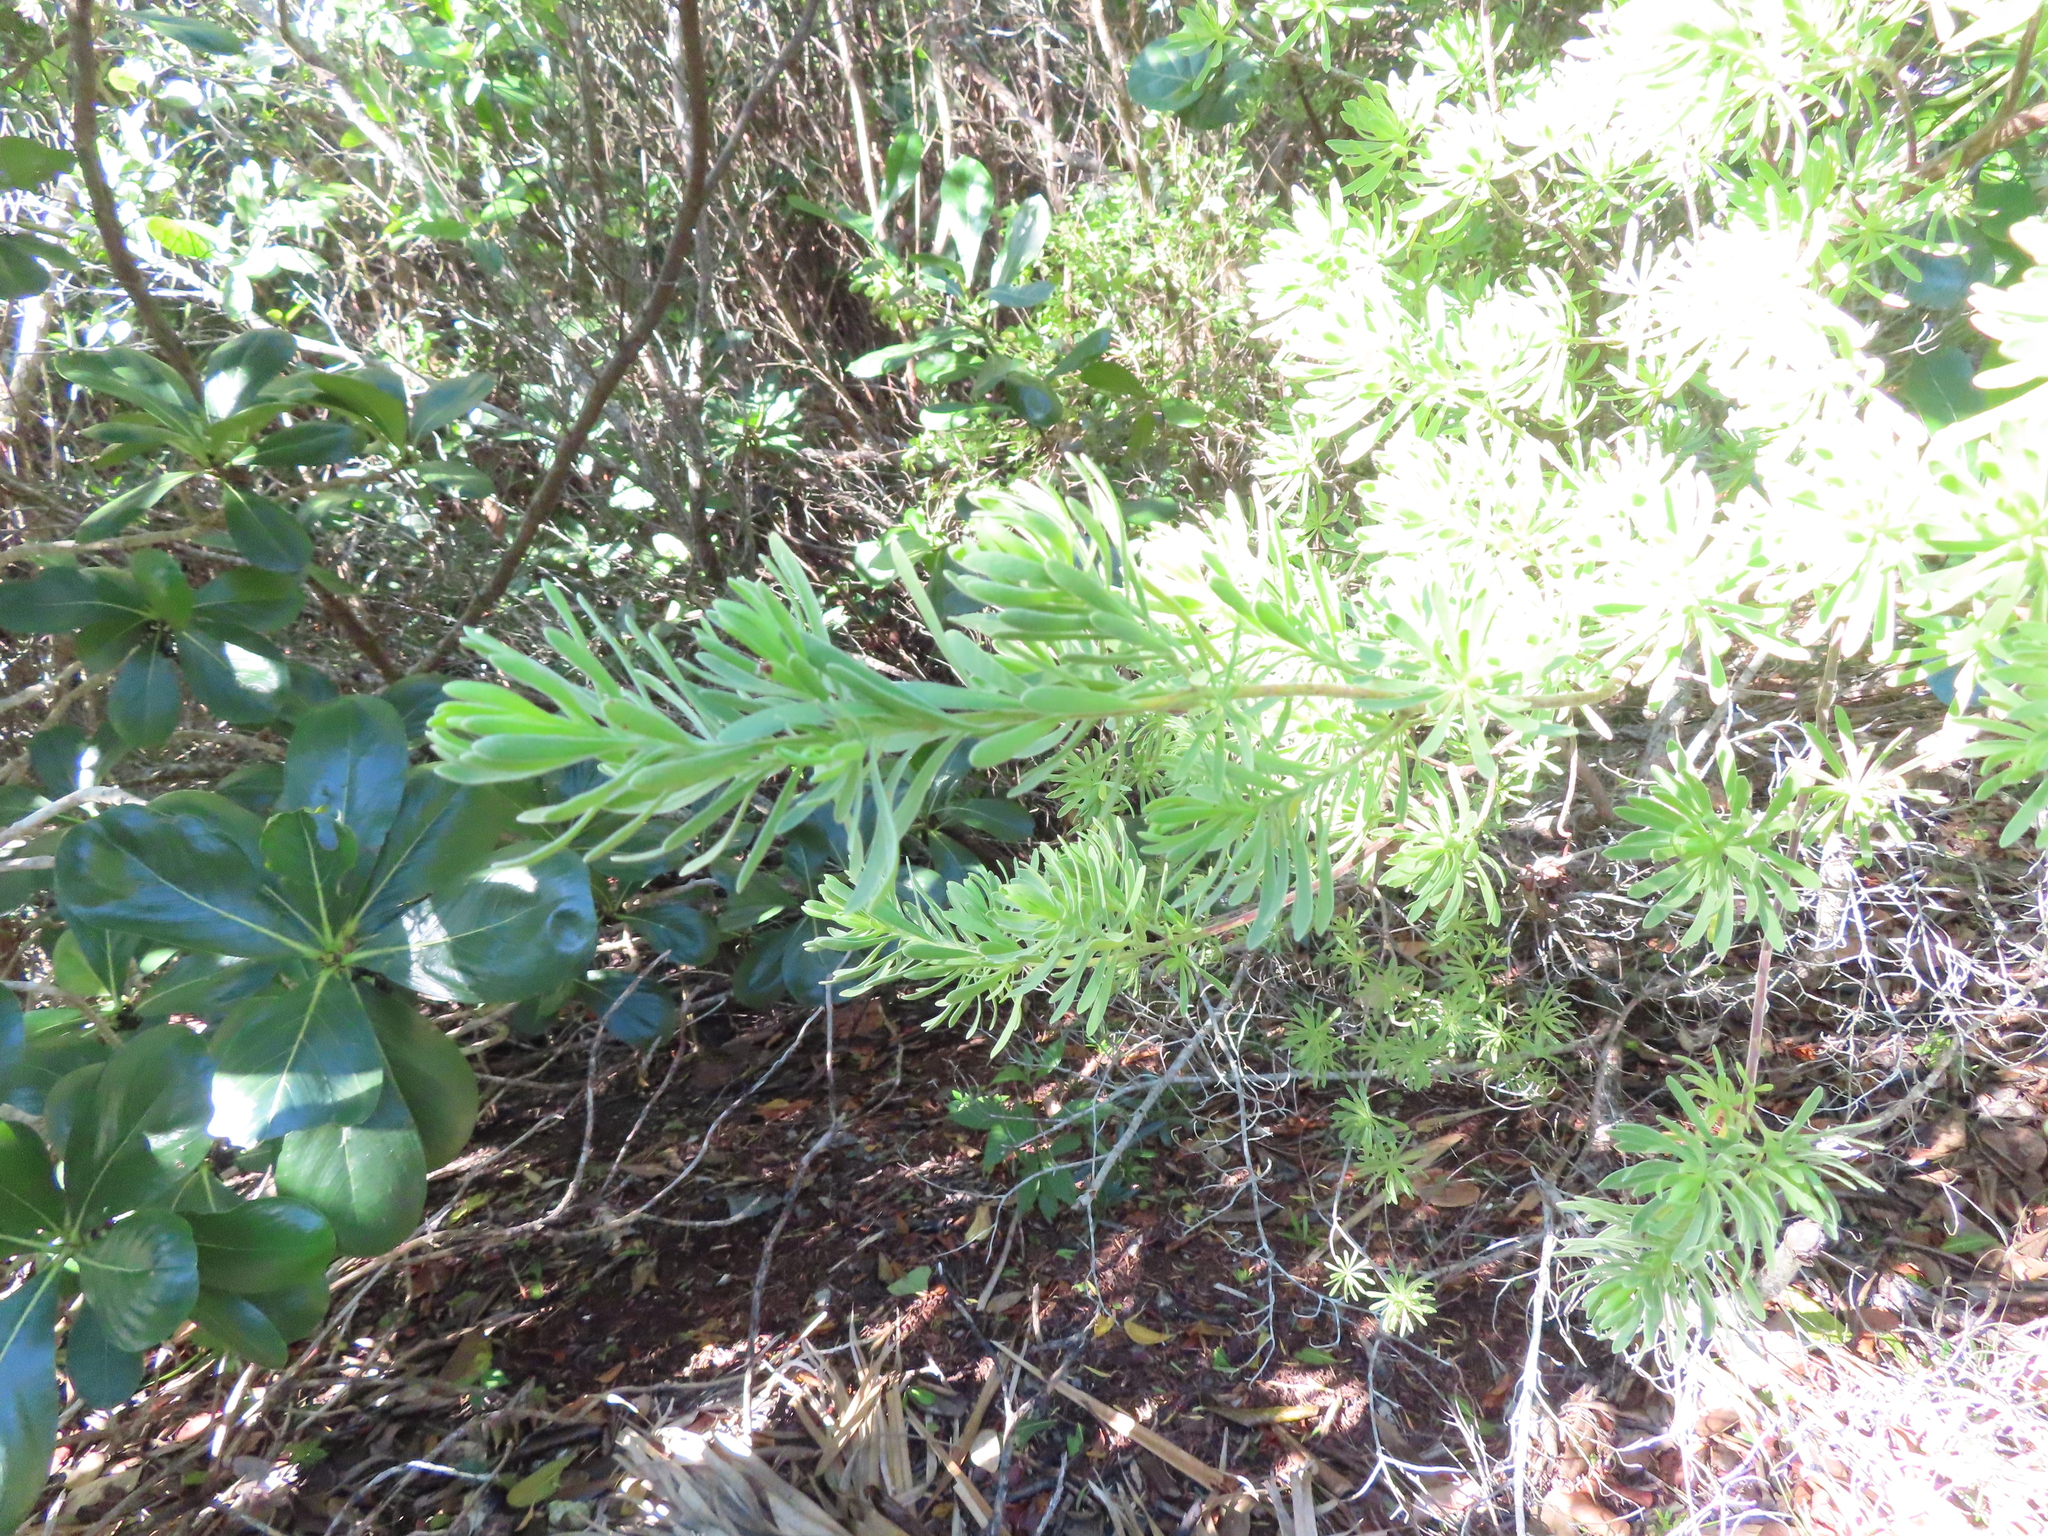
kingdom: Plantae
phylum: Tracheophyta
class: Magnoliopsida
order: Fabales
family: Surianaceae
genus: Suriana
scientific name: Suriana maritima
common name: Bay-cedar
